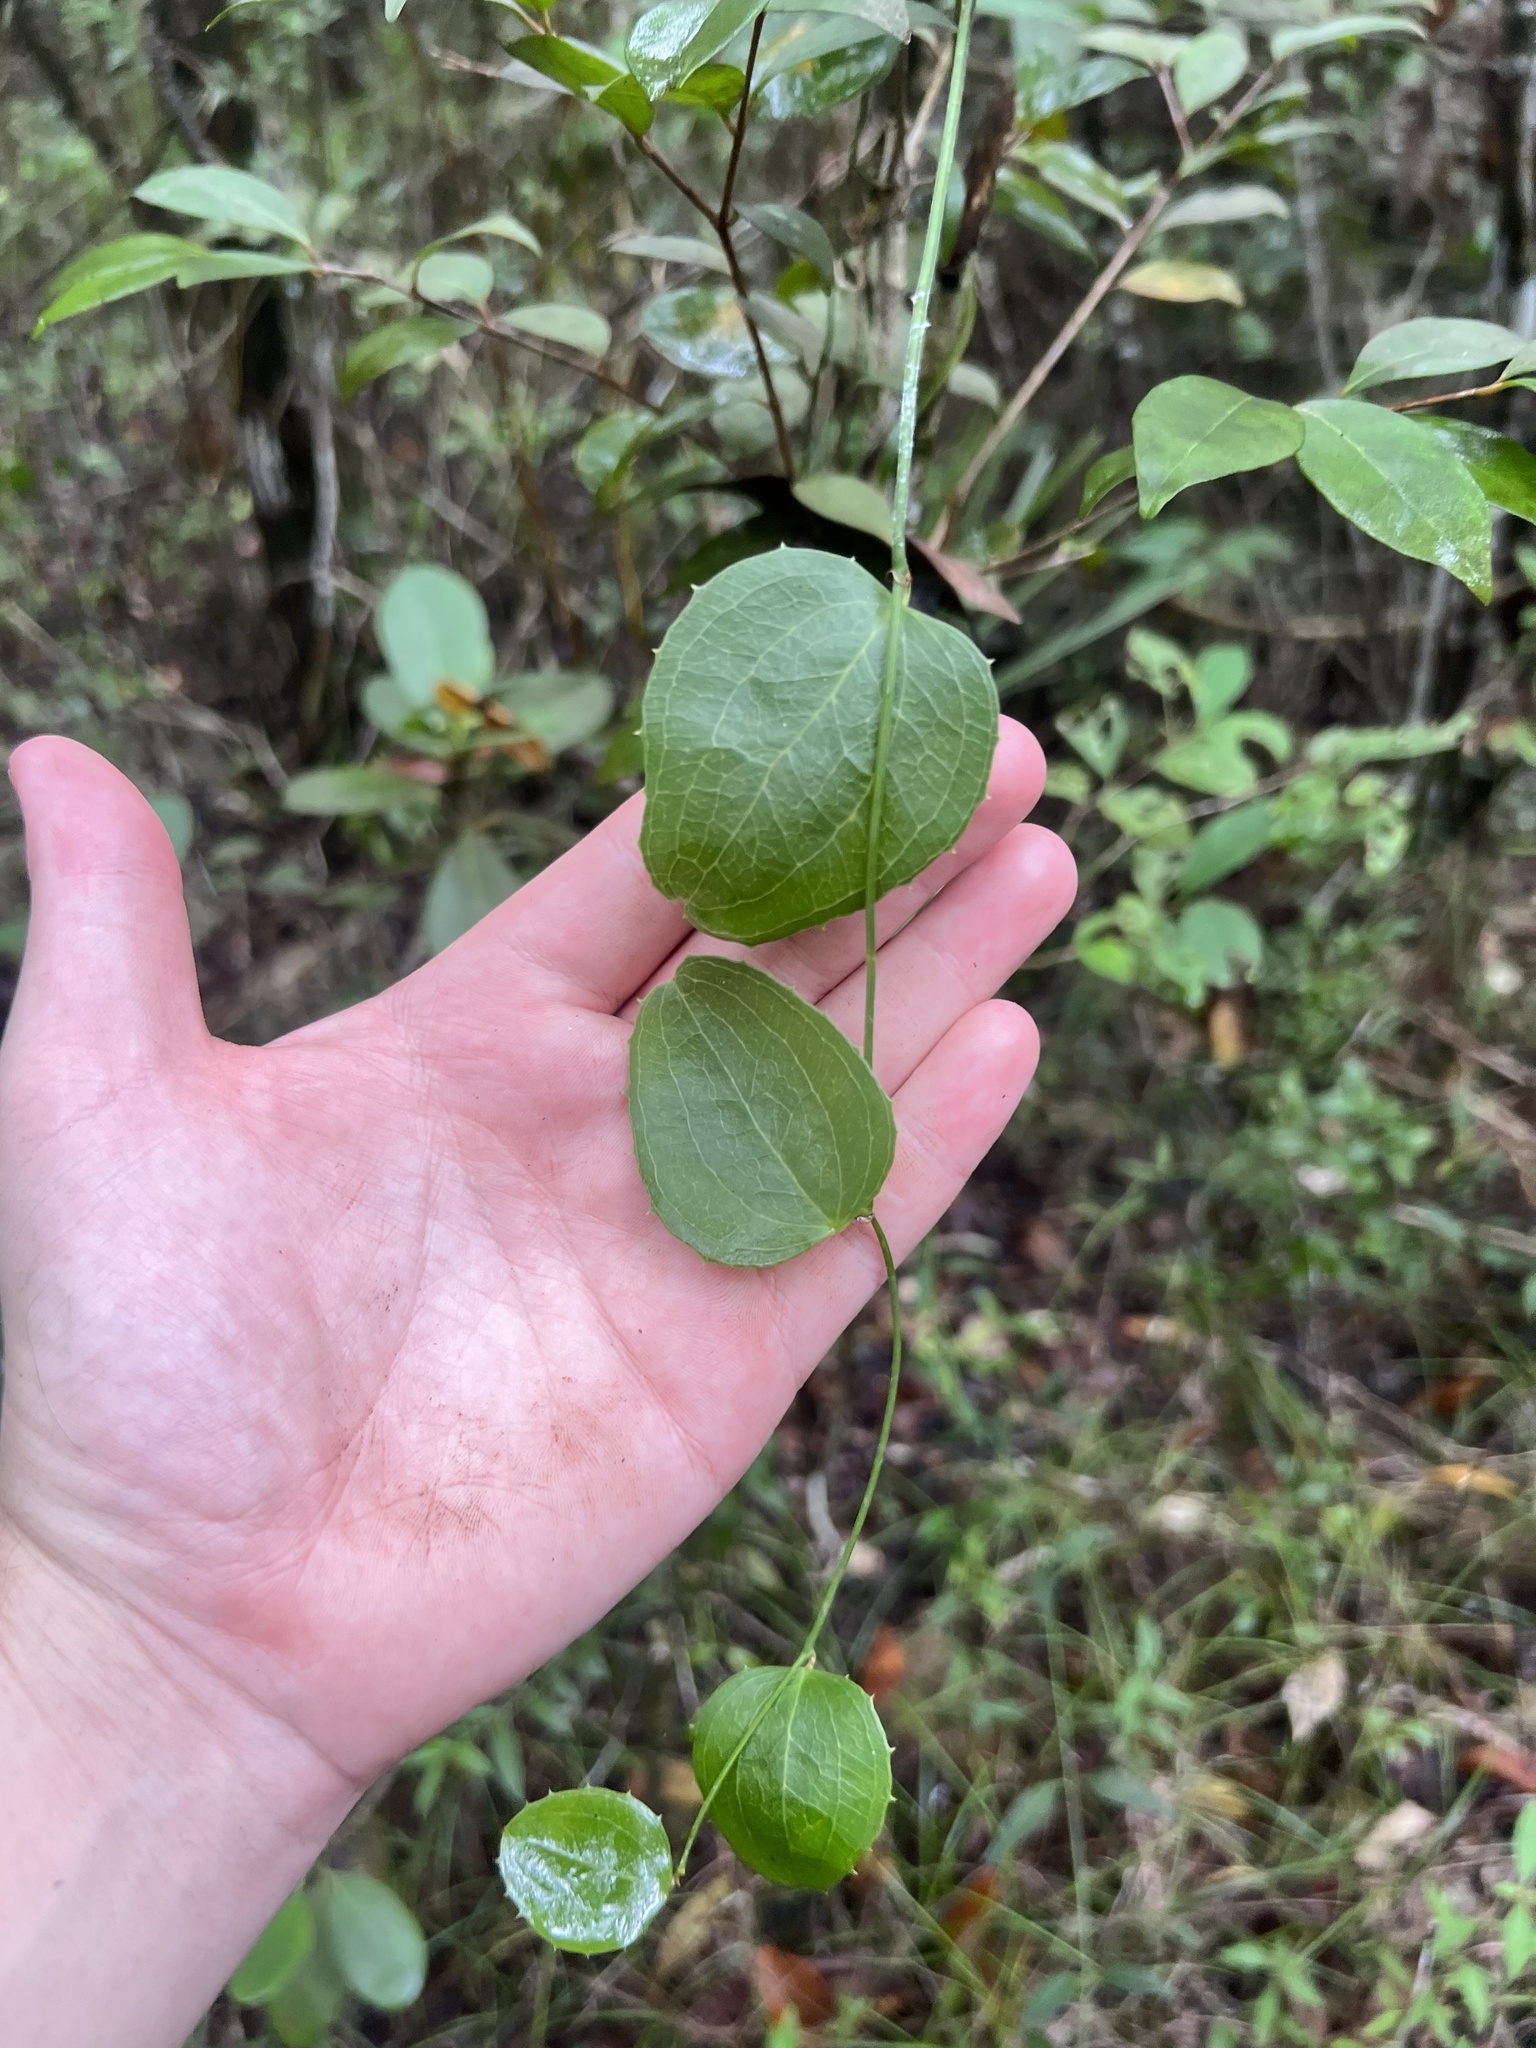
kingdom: Plantae
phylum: Tracheophyta
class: Liliopsida
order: Liliales
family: Smilacaceae
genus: Smilax
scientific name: Smilax havanensis
